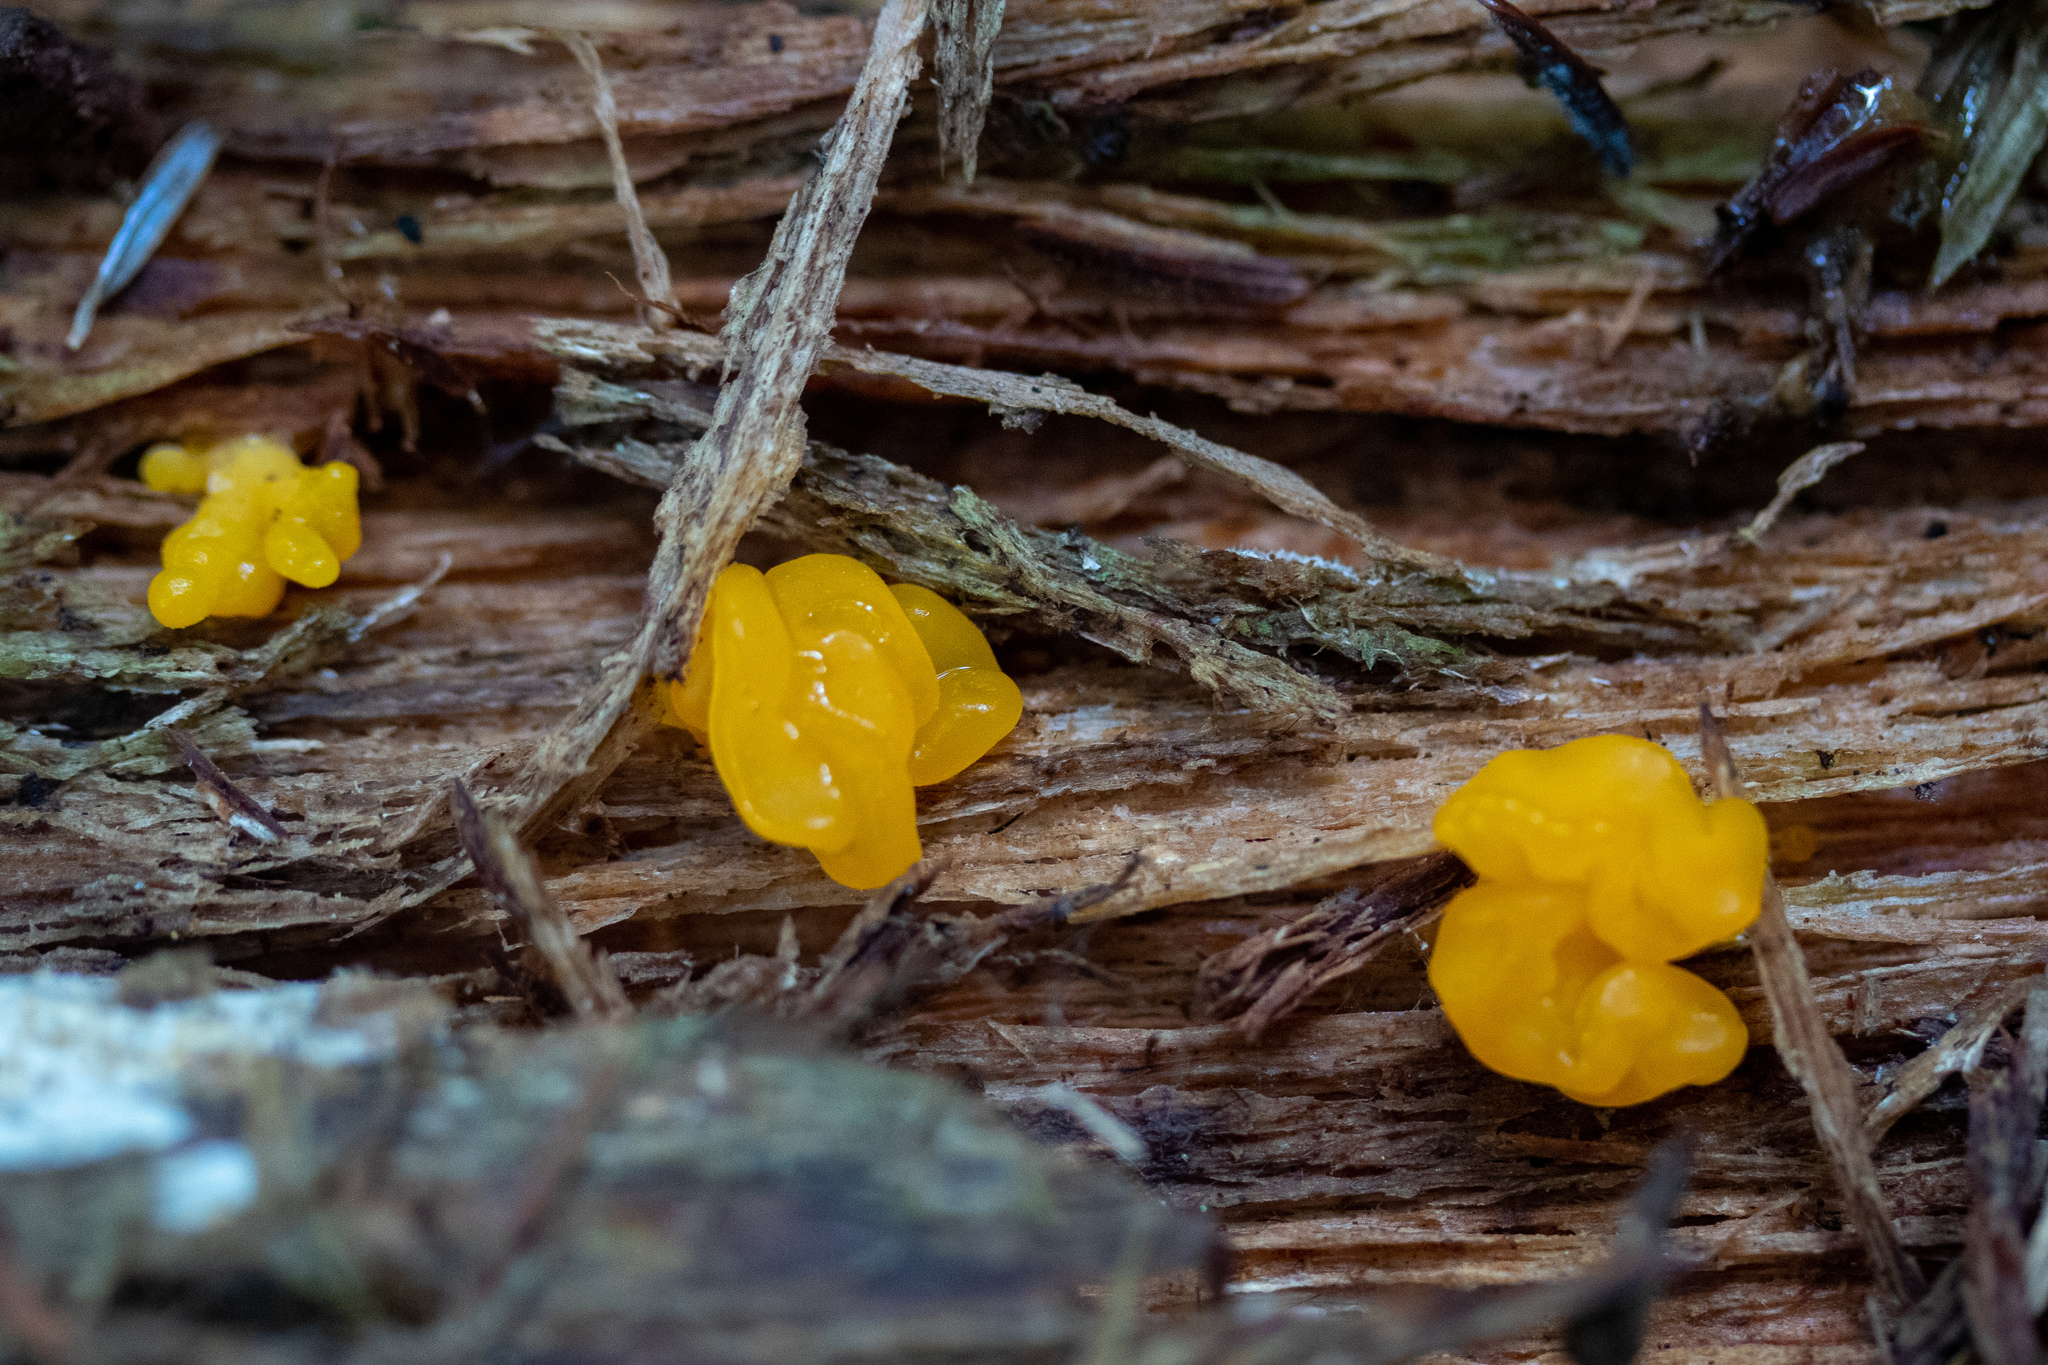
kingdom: Fungi
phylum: Basidiomycota
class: Tremellomycetes
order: Tremellales
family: Tremellaceae
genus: Tremella
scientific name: Tremella mesenterica
